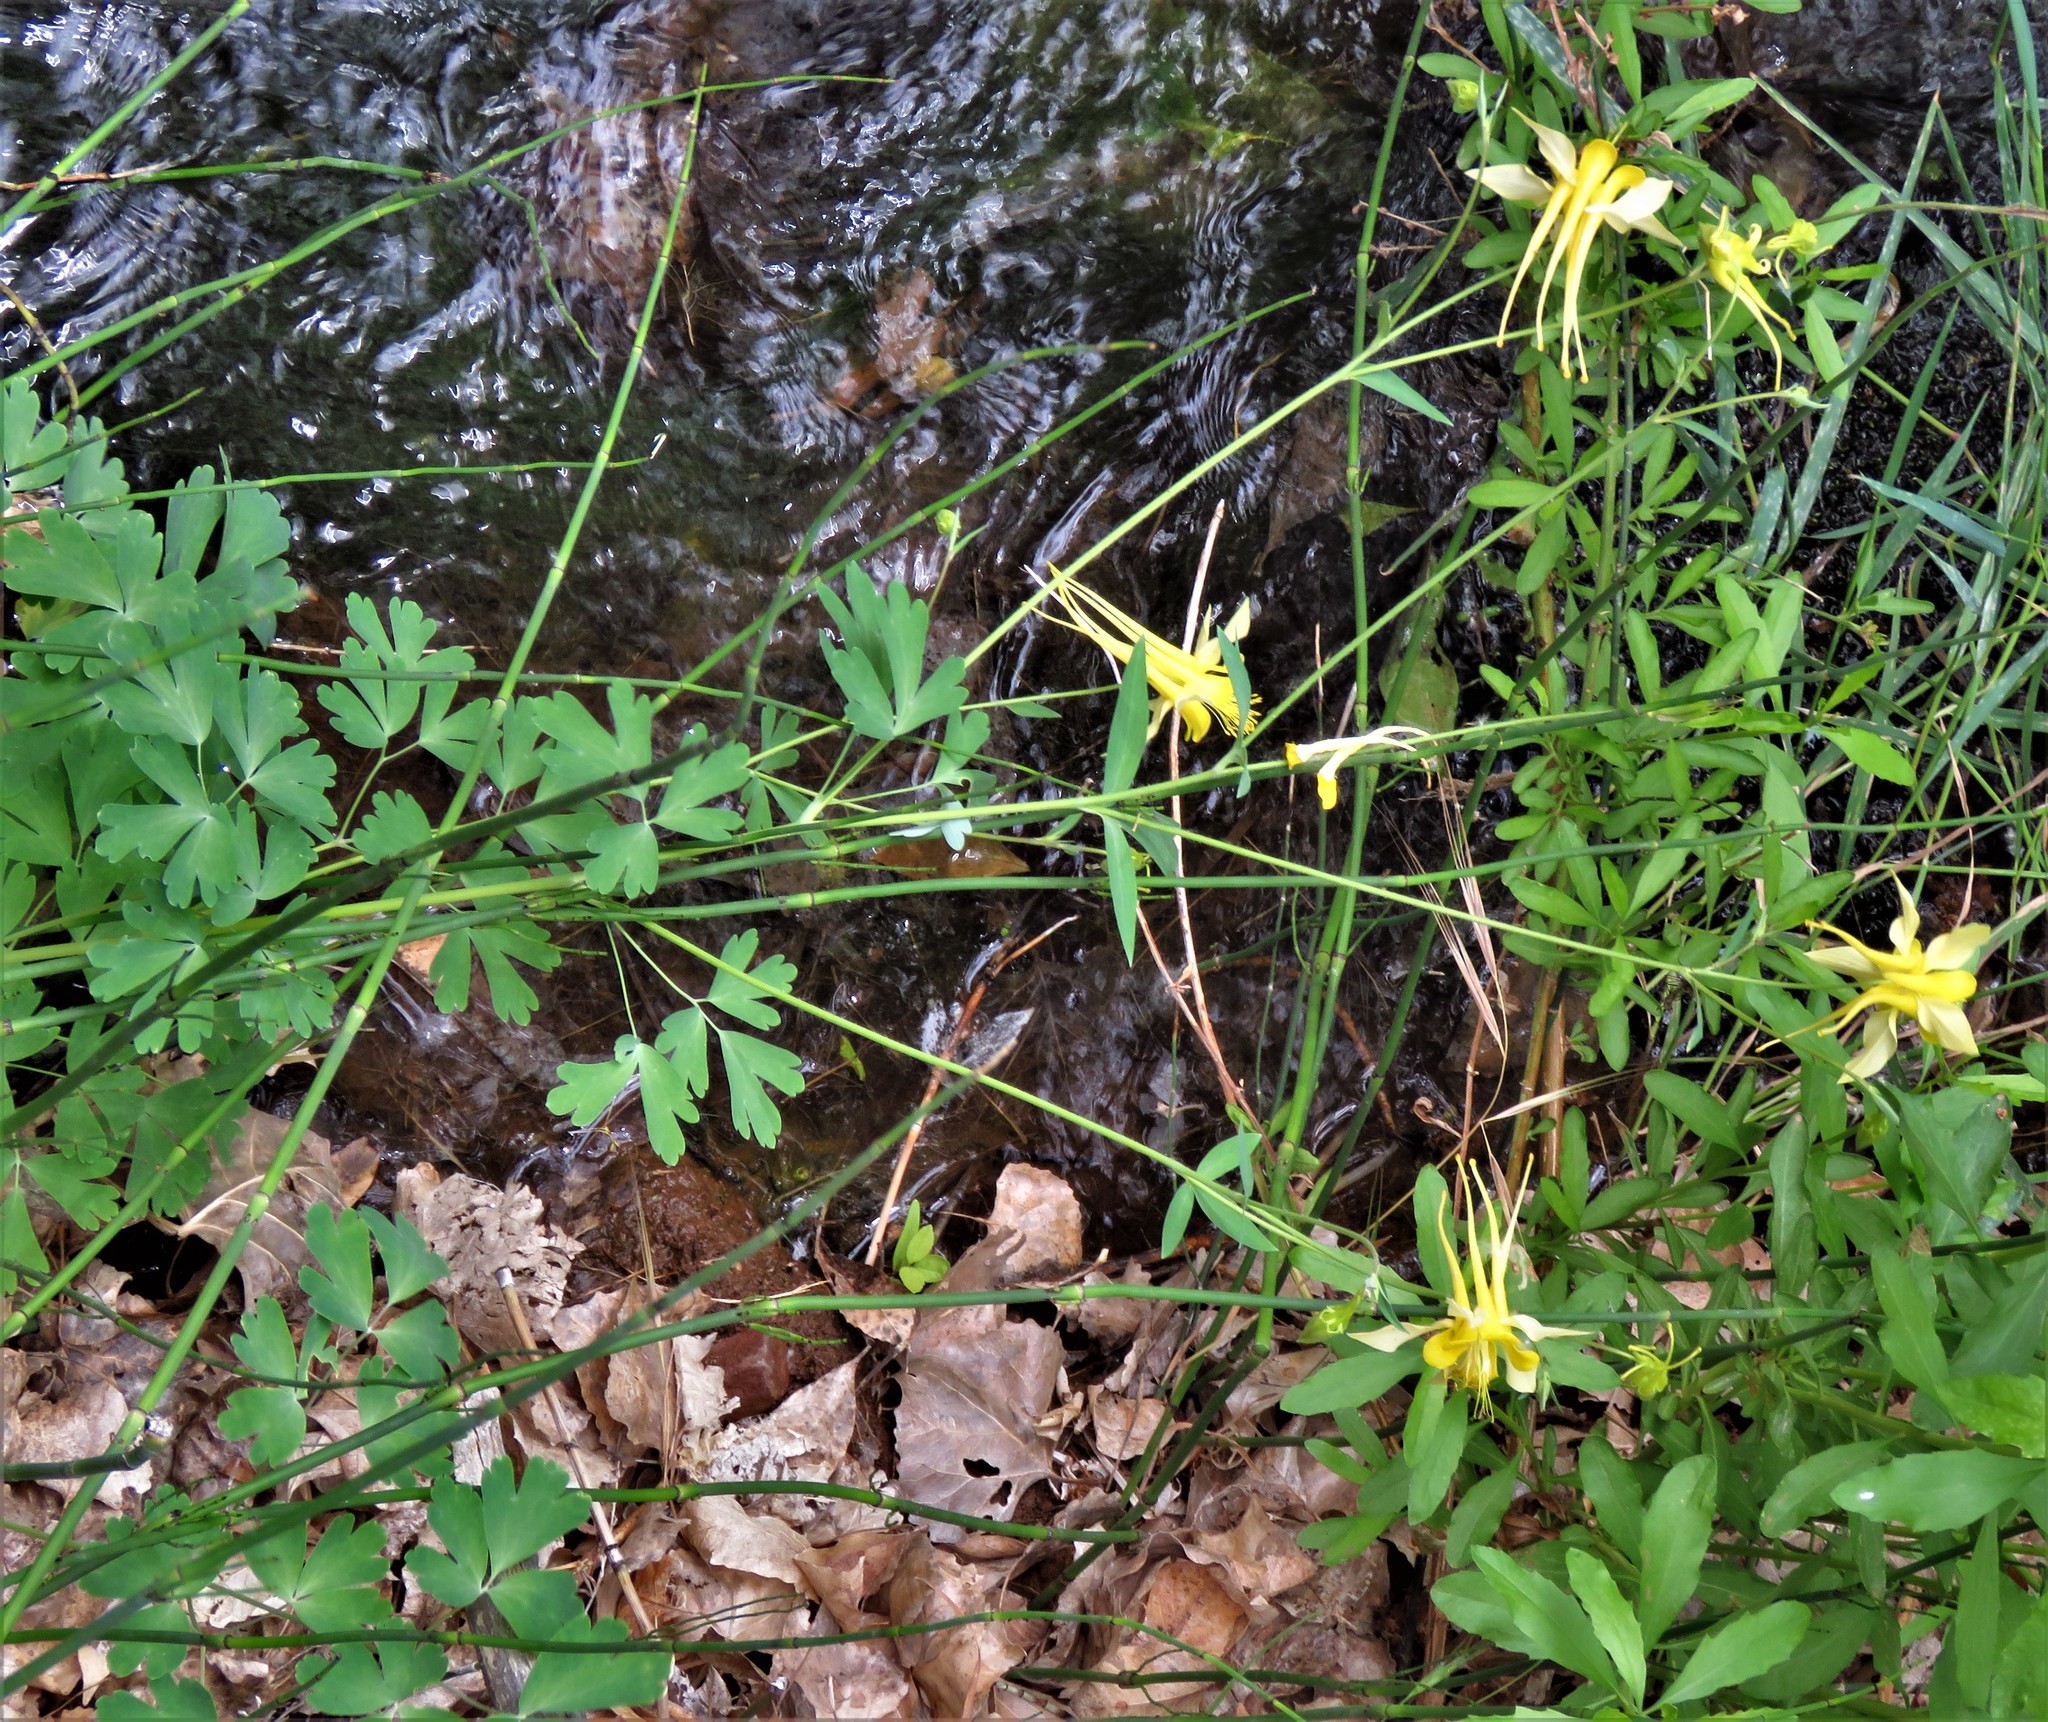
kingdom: Plantae
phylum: Tracheophyta
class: Magnoliopsida
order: Ranunculales
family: Ranunculaceae
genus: Aquilegia
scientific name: Aquilegia chrysantha
